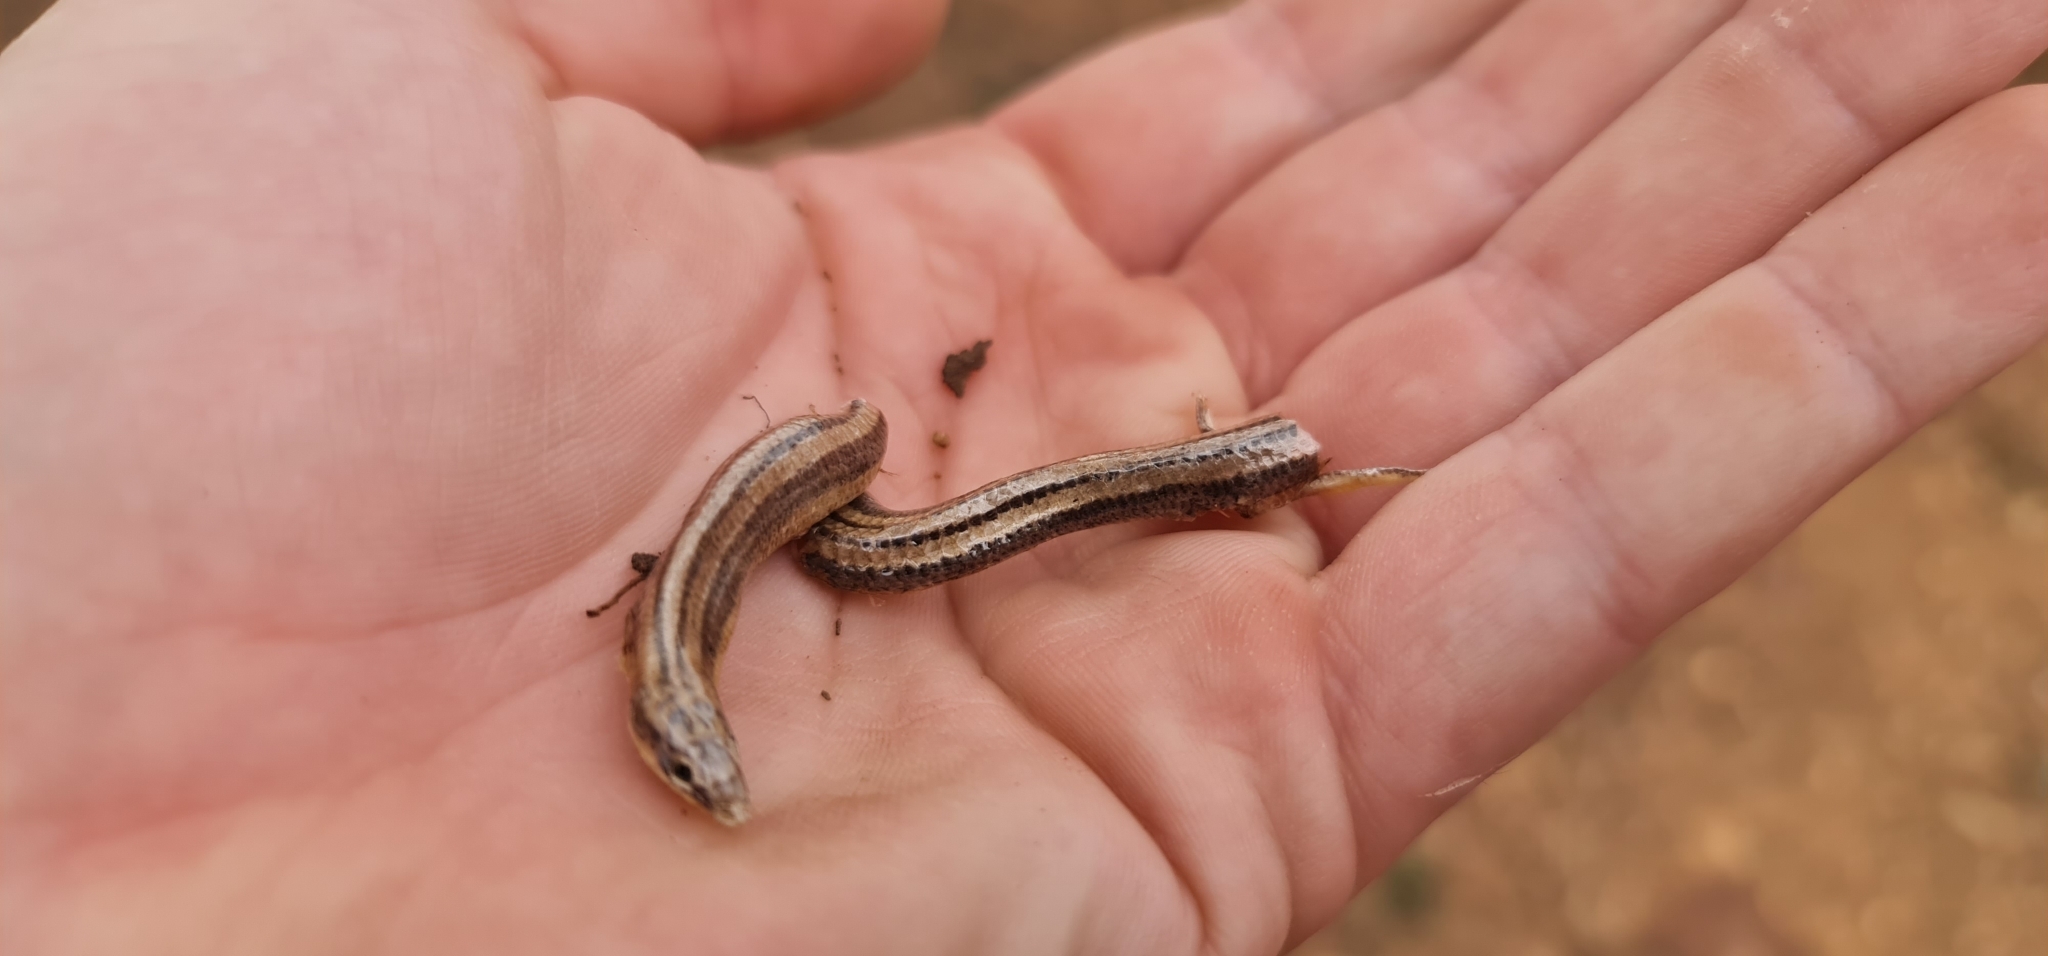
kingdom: Animalia
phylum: Chordata
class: Squamata
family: Scincidae
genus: Lerista
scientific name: Lerista edwardsae
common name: Myall slider
